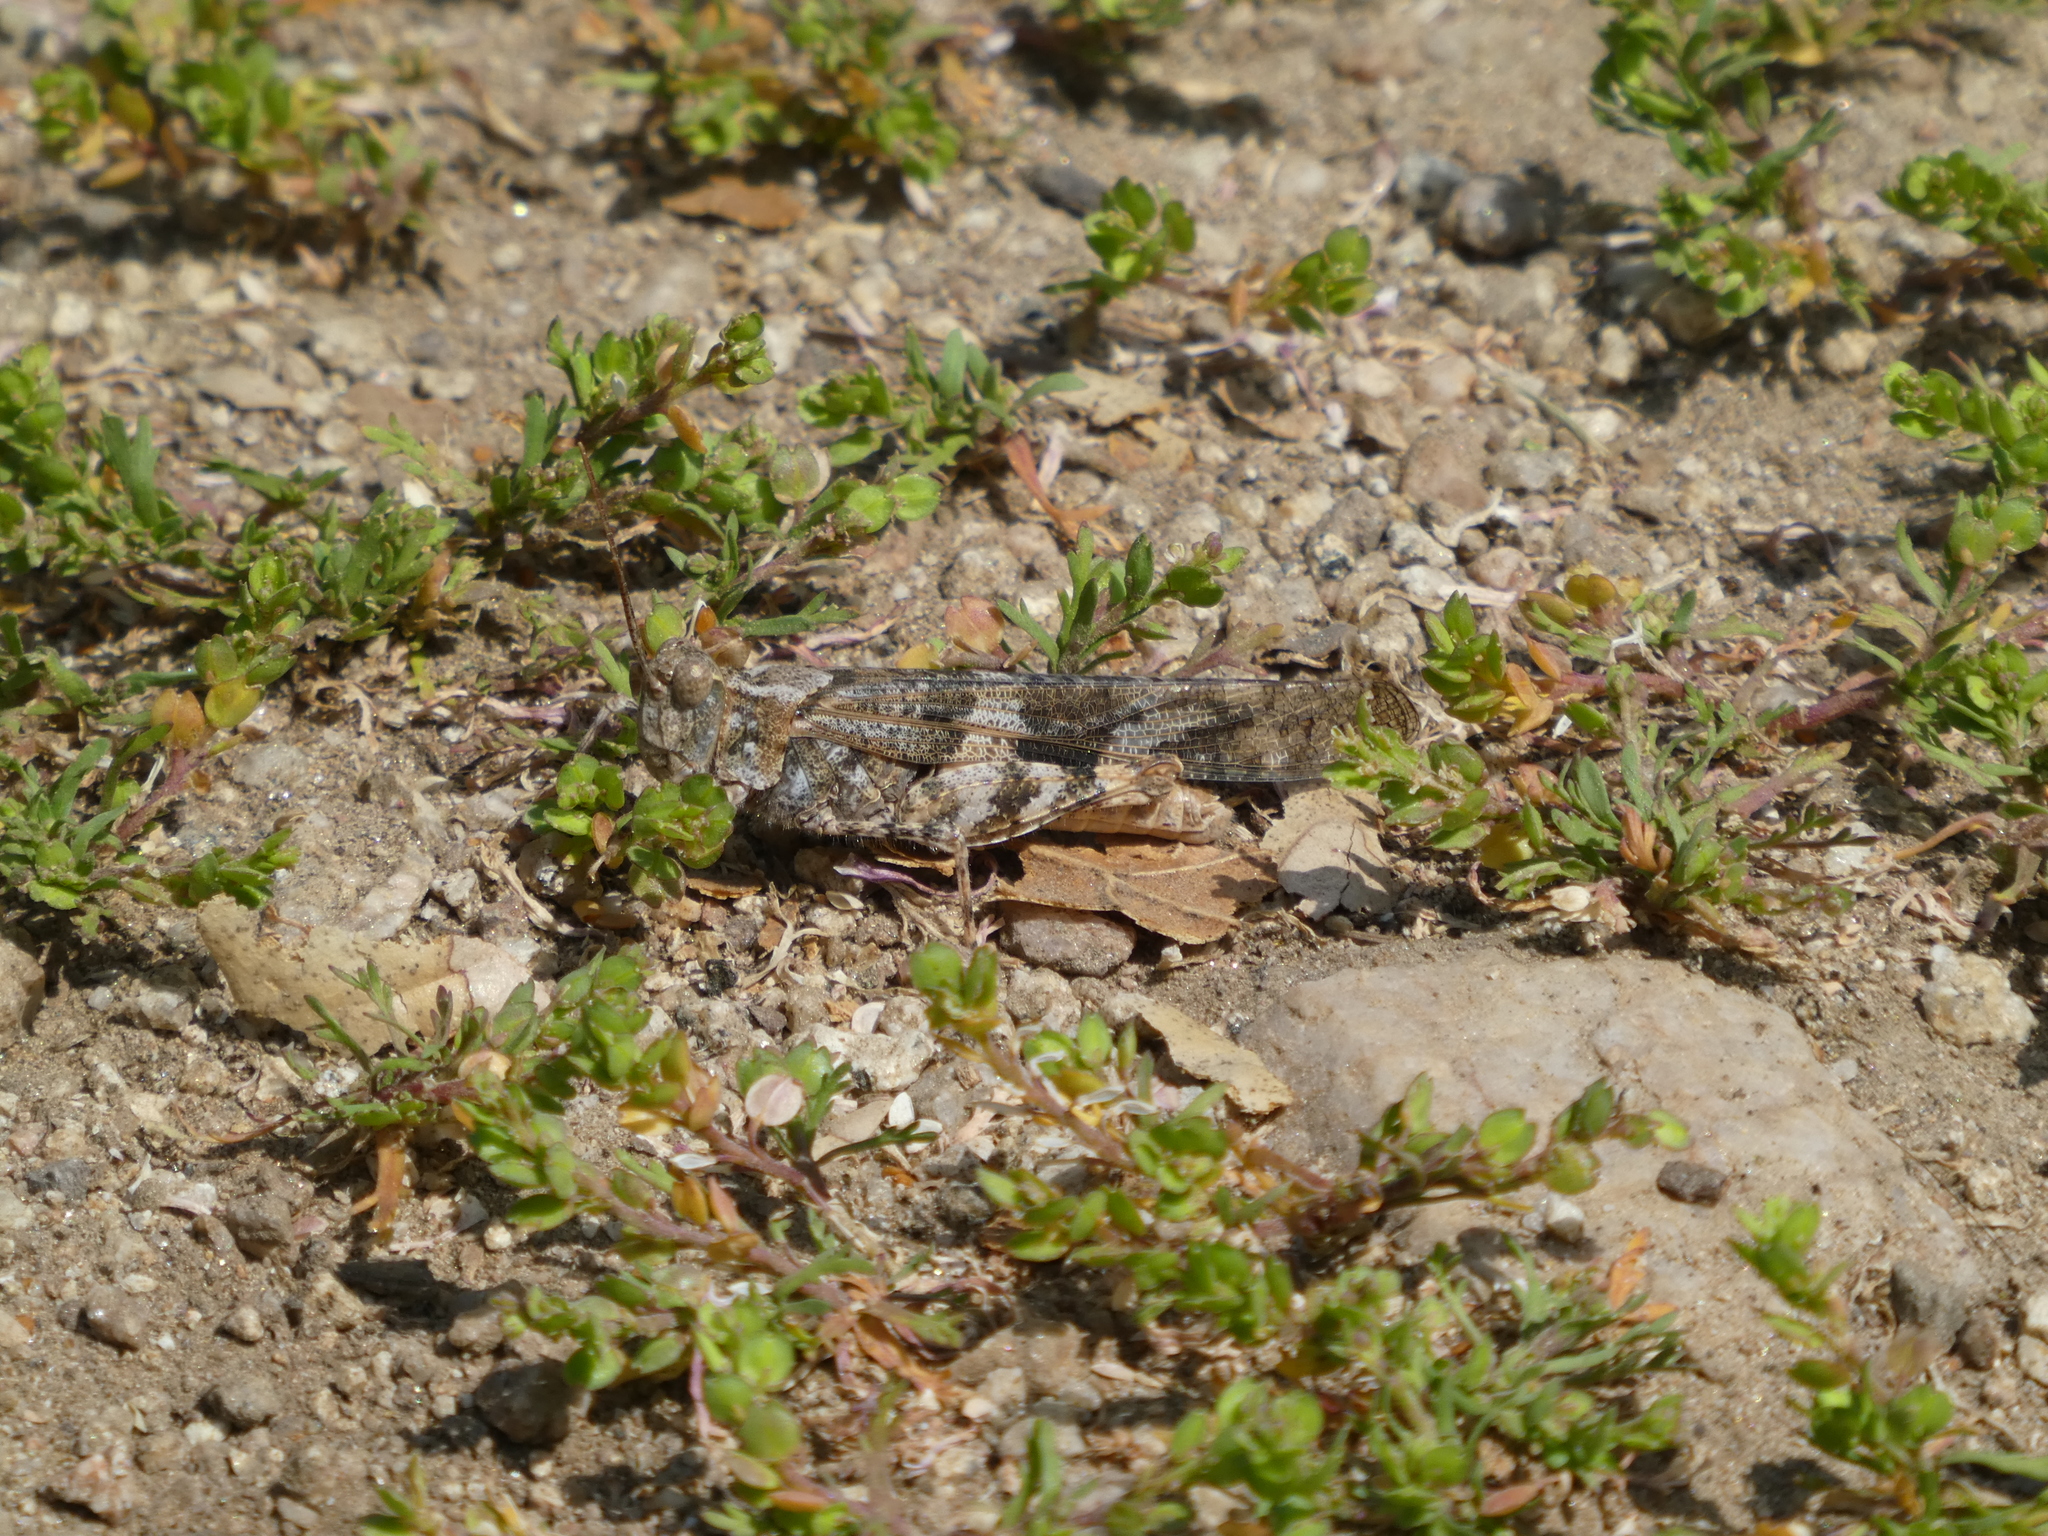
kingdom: Animalia
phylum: Arthropoda
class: Insecta
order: Orthoptera
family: Acrididae
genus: Trimerotropis
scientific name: Trimerotropis pallidipennis
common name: Pallid-winged grasshopper
